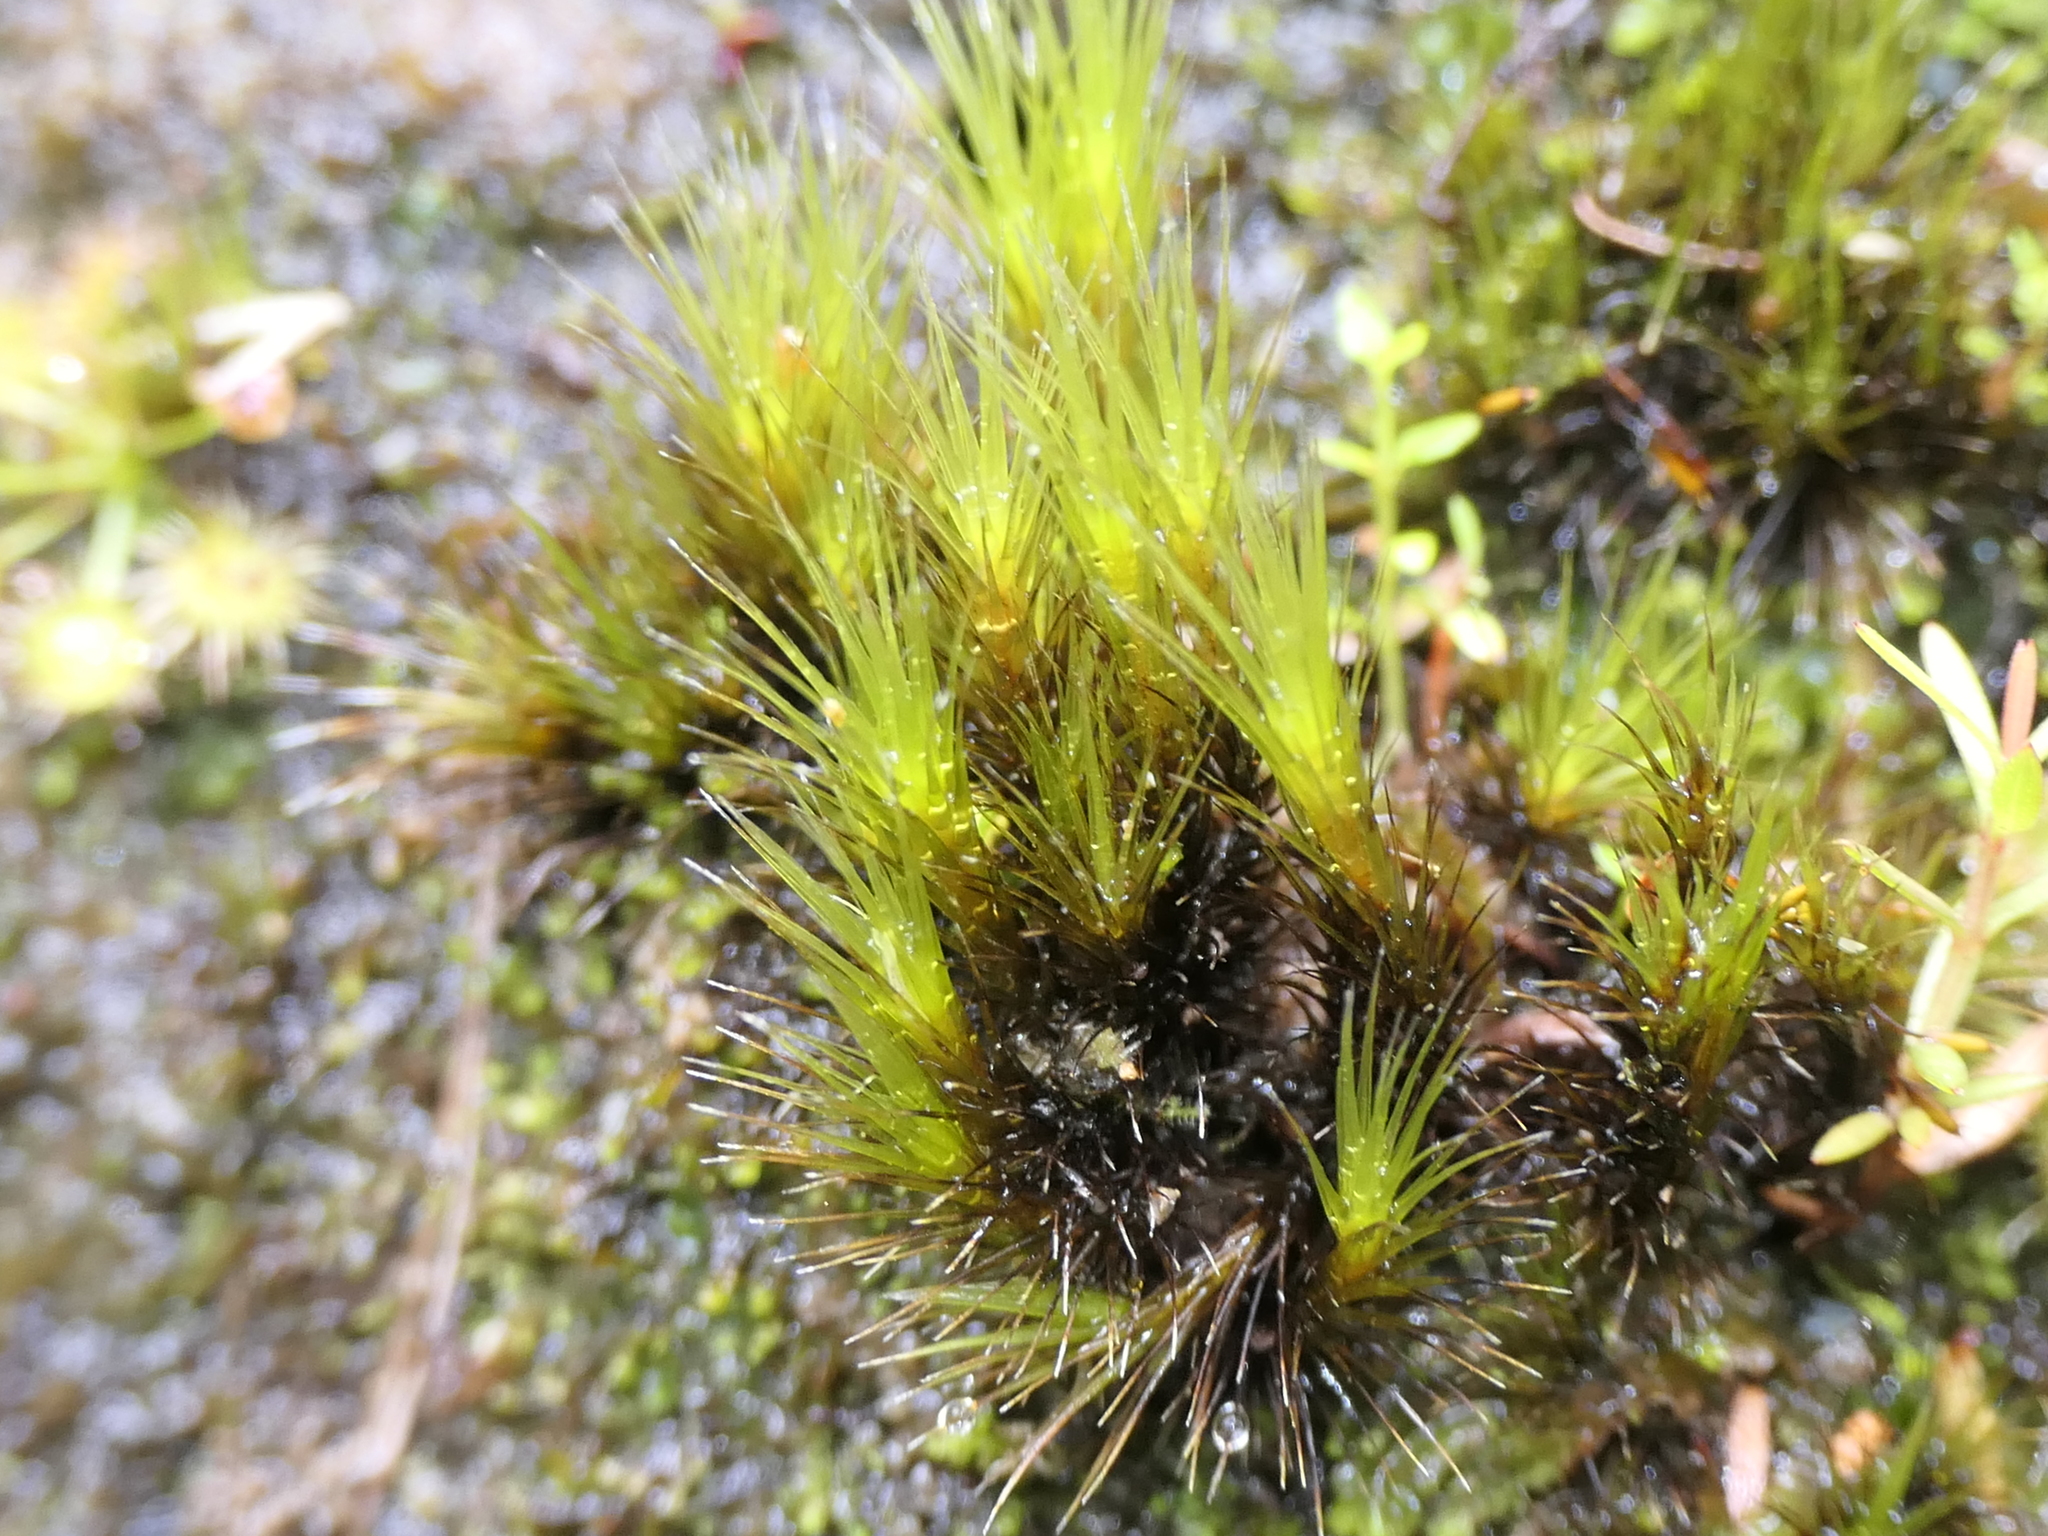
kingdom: Plantae
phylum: Bryophyta
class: Bryopsida
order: Dicranales
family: Leucobryaceae
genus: Campylopus
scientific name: Campylopus clavatus
